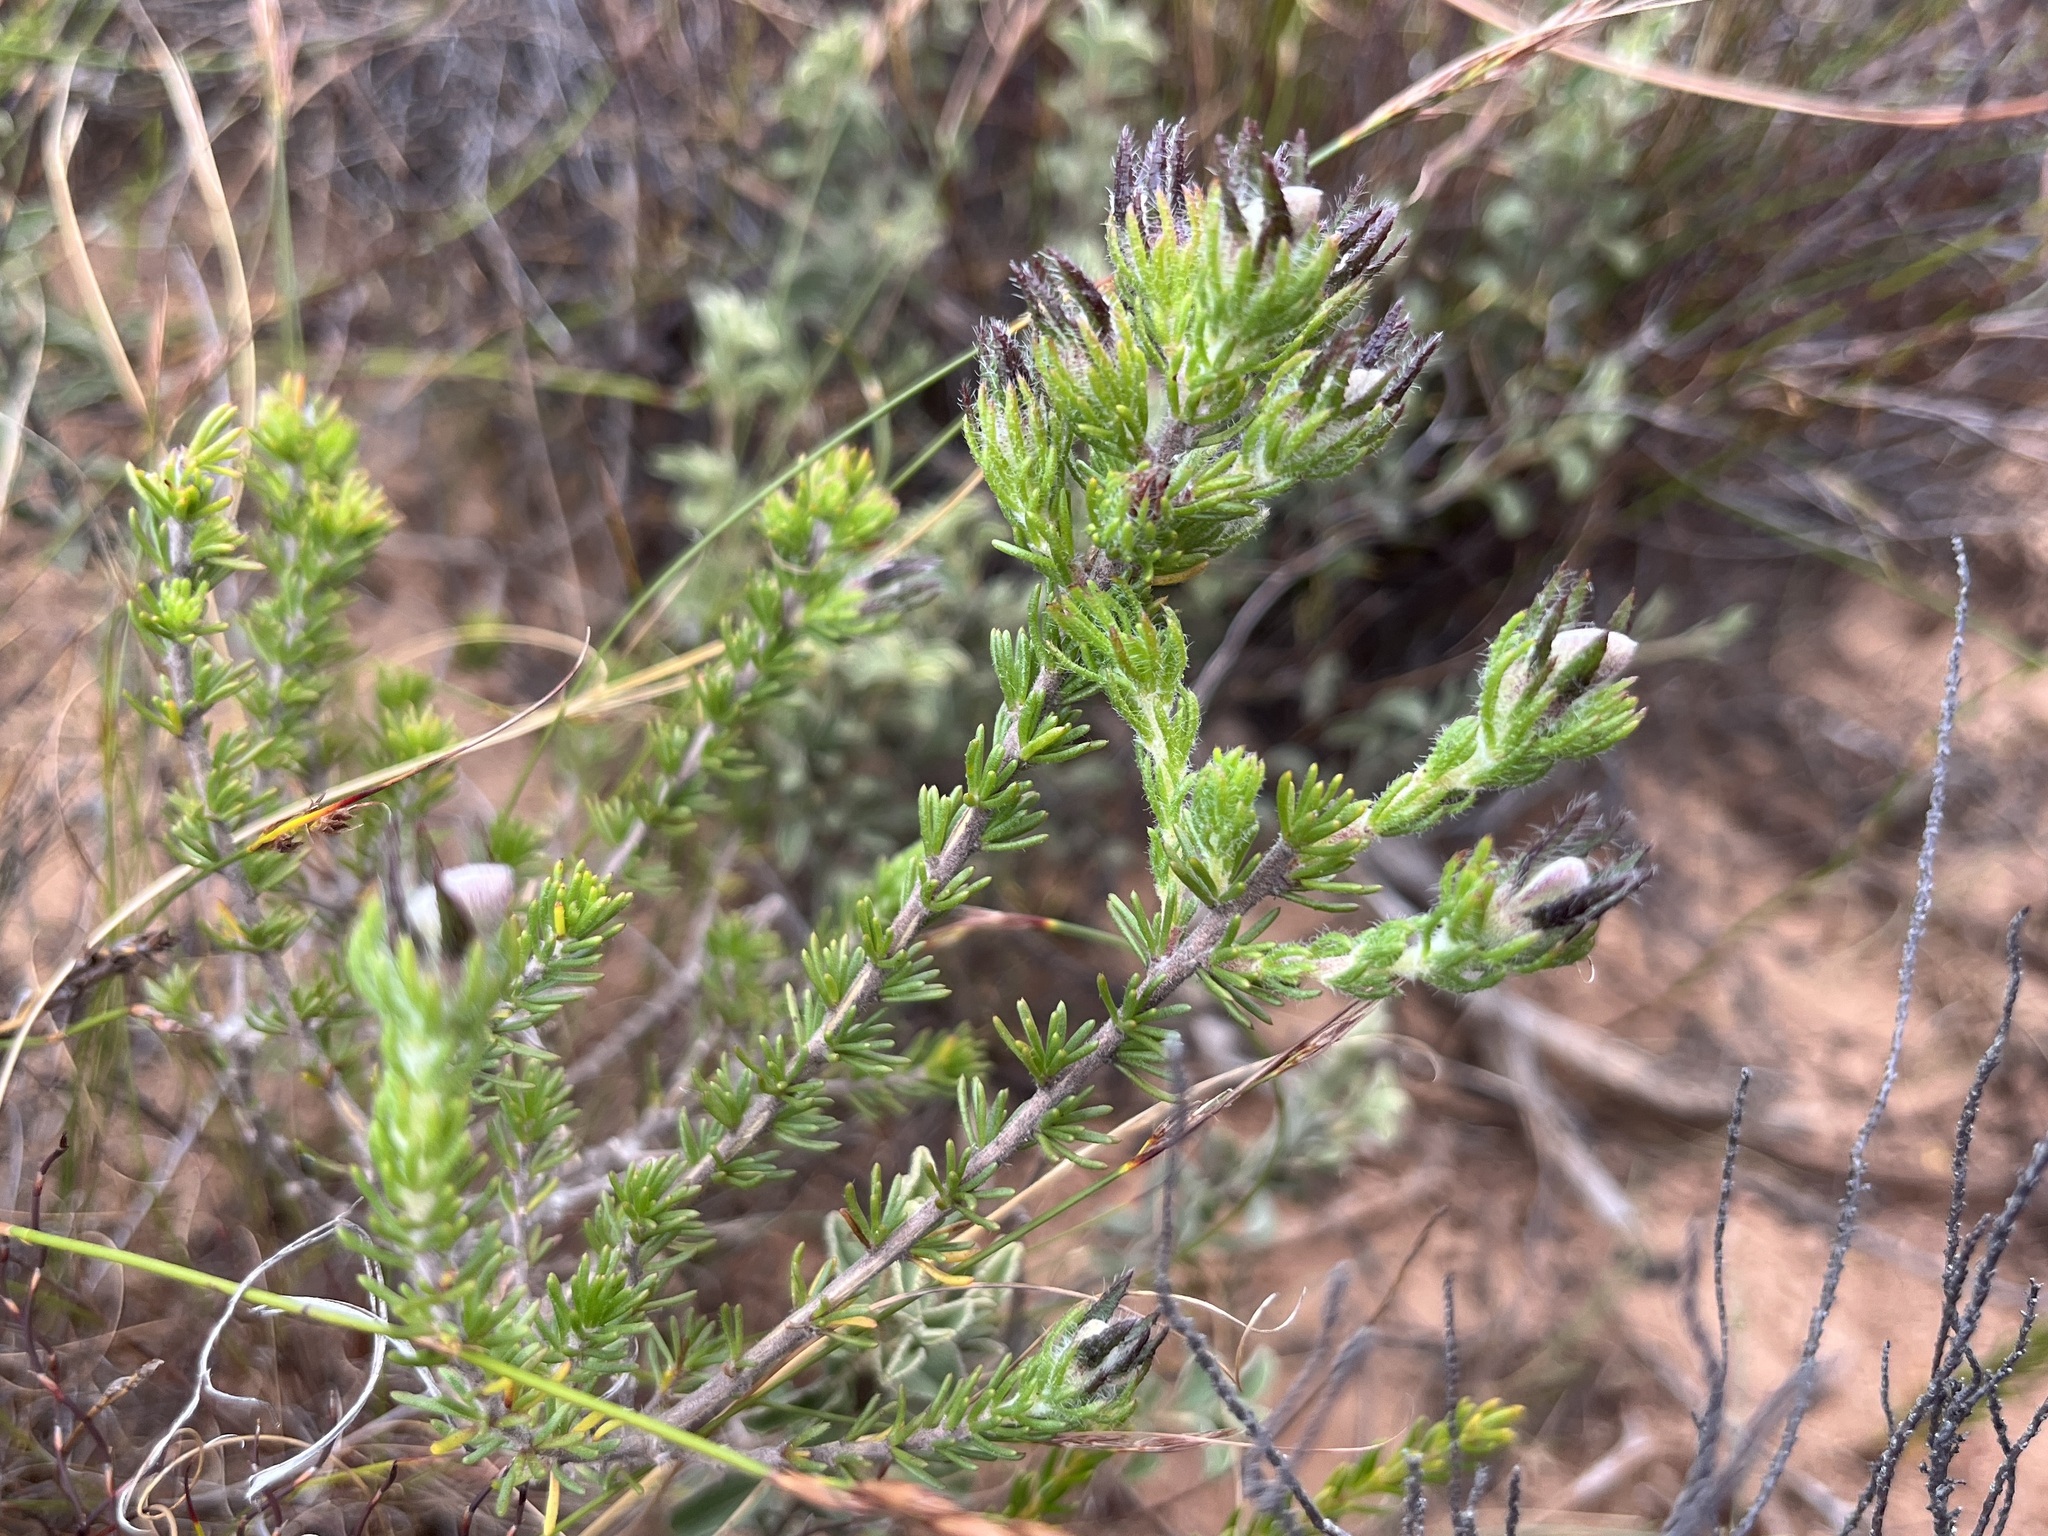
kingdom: Plantae
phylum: Tracheophyta
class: Magnoliopsida
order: Fabales
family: Fabaceae
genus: Aspalathus
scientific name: Aspalathus ciliaris
